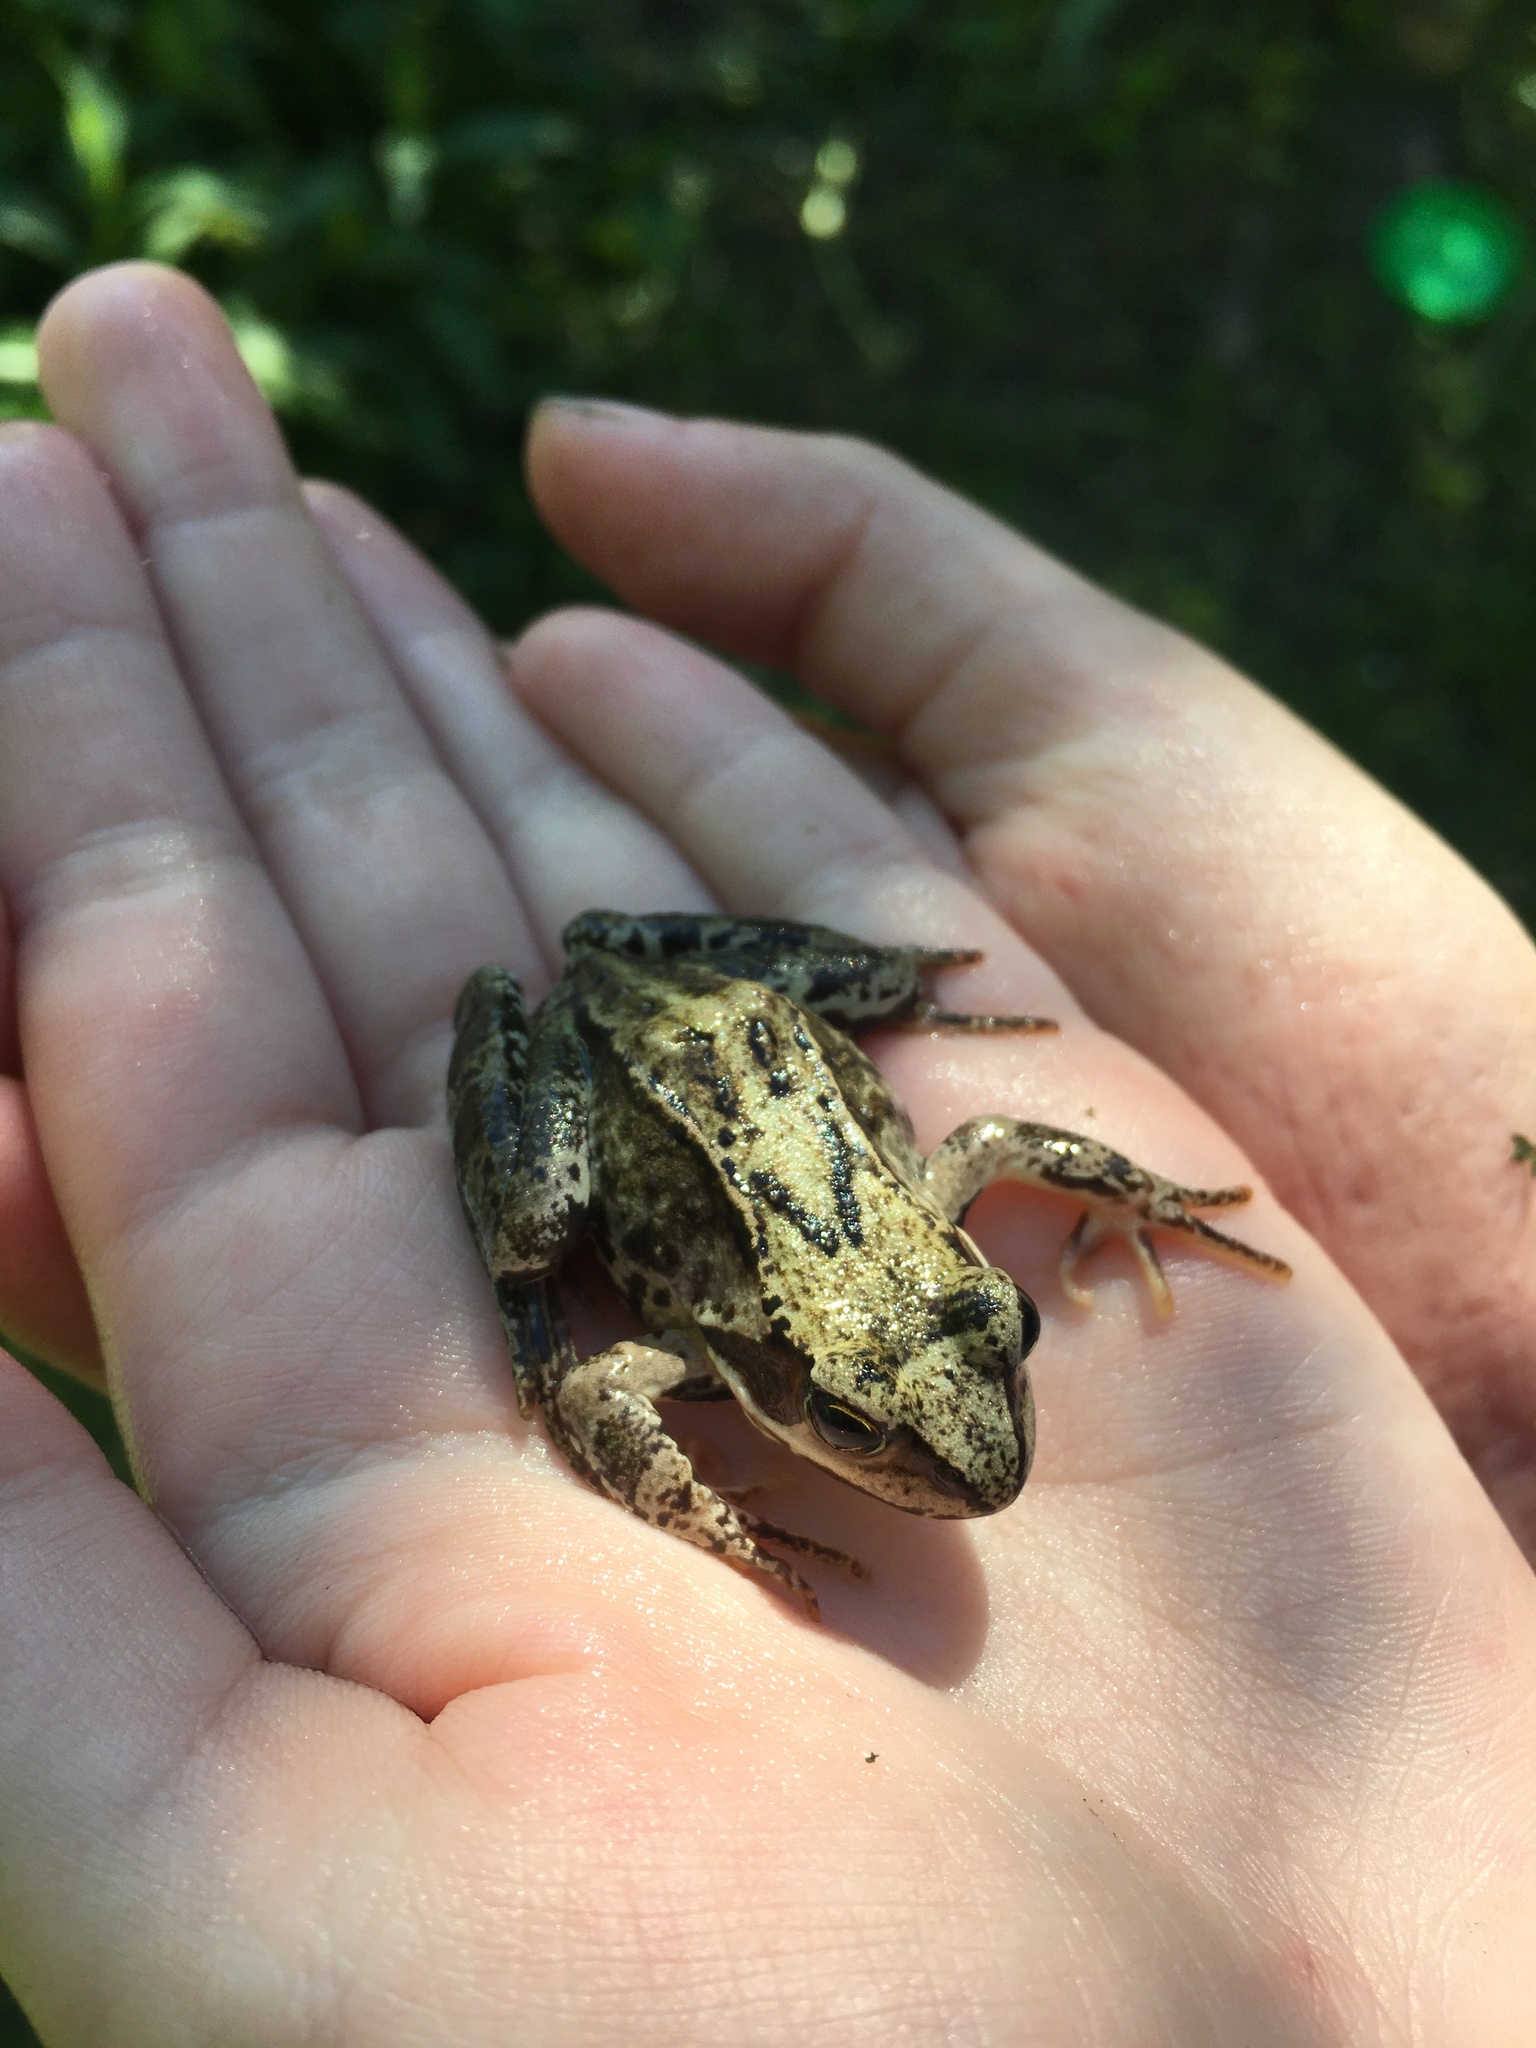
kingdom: Animalia
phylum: Chordata
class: Amphibia
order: Anura
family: Ranidae
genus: Rana
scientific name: Rana temporaria
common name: Common frog
